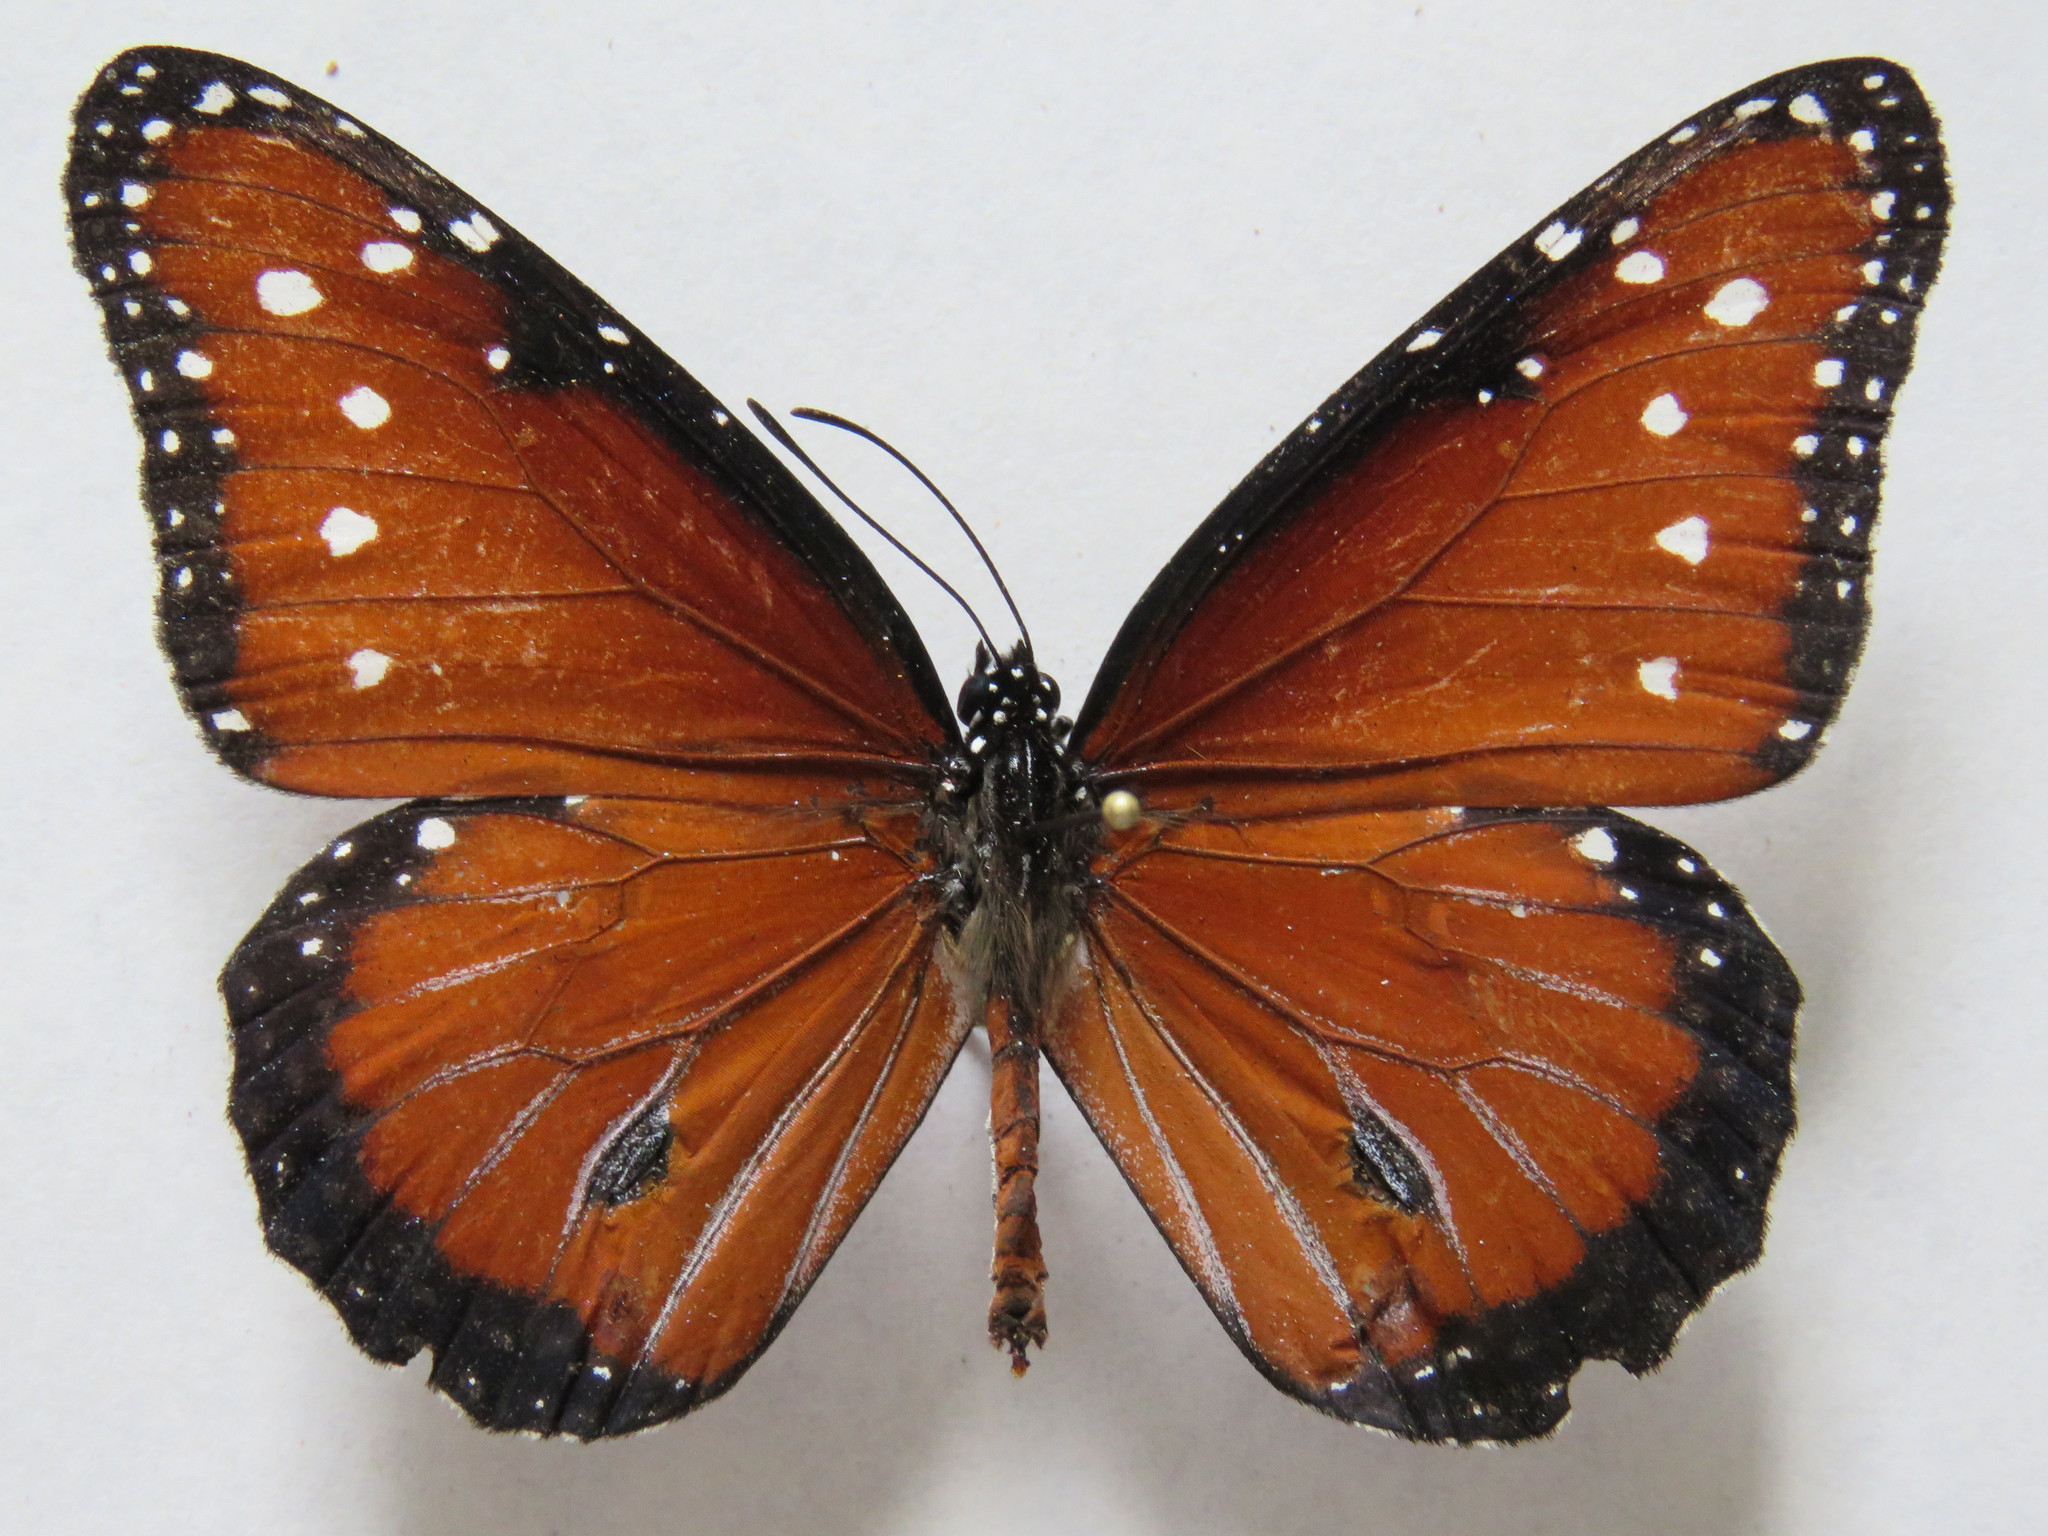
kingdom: Animalia
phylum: Arthropoda
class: Insecta
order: Lepidoptera
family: Nymphalidae
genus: Danaus
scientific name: Danaus gilippus
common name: Queen
